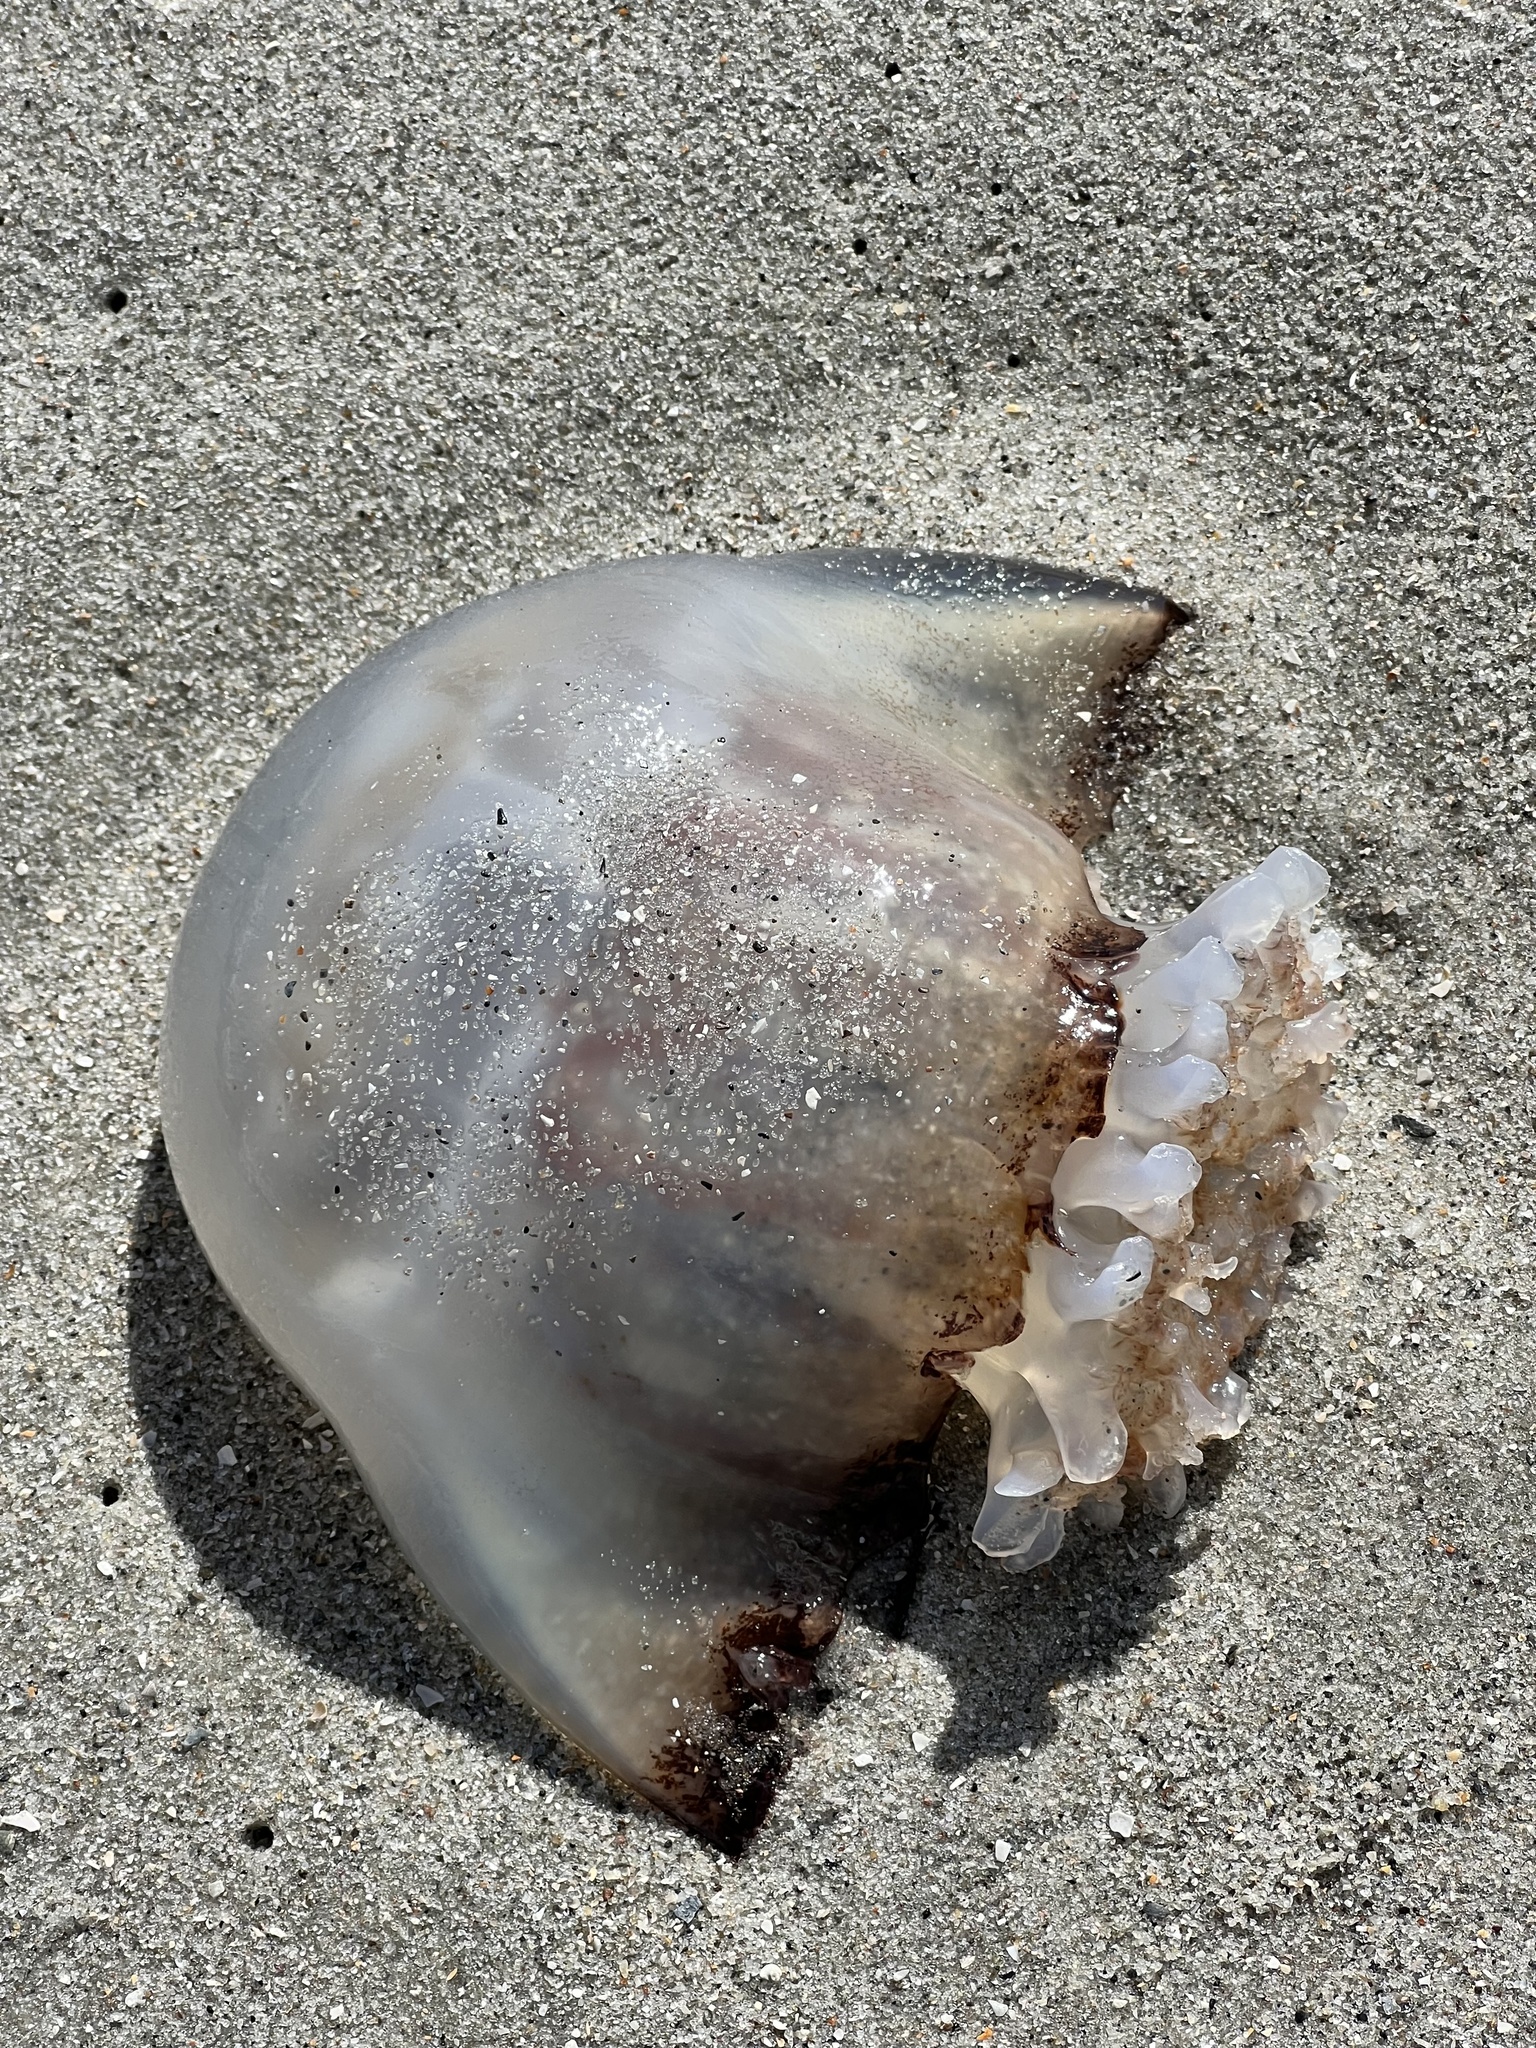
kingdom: Animalia
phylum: Cnidaria
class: Scyphozoa
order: Rhizostomeae
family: Stomolophidae
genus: Stomolophus
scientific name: Stomolophus meleagris
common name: Cabbagehead
